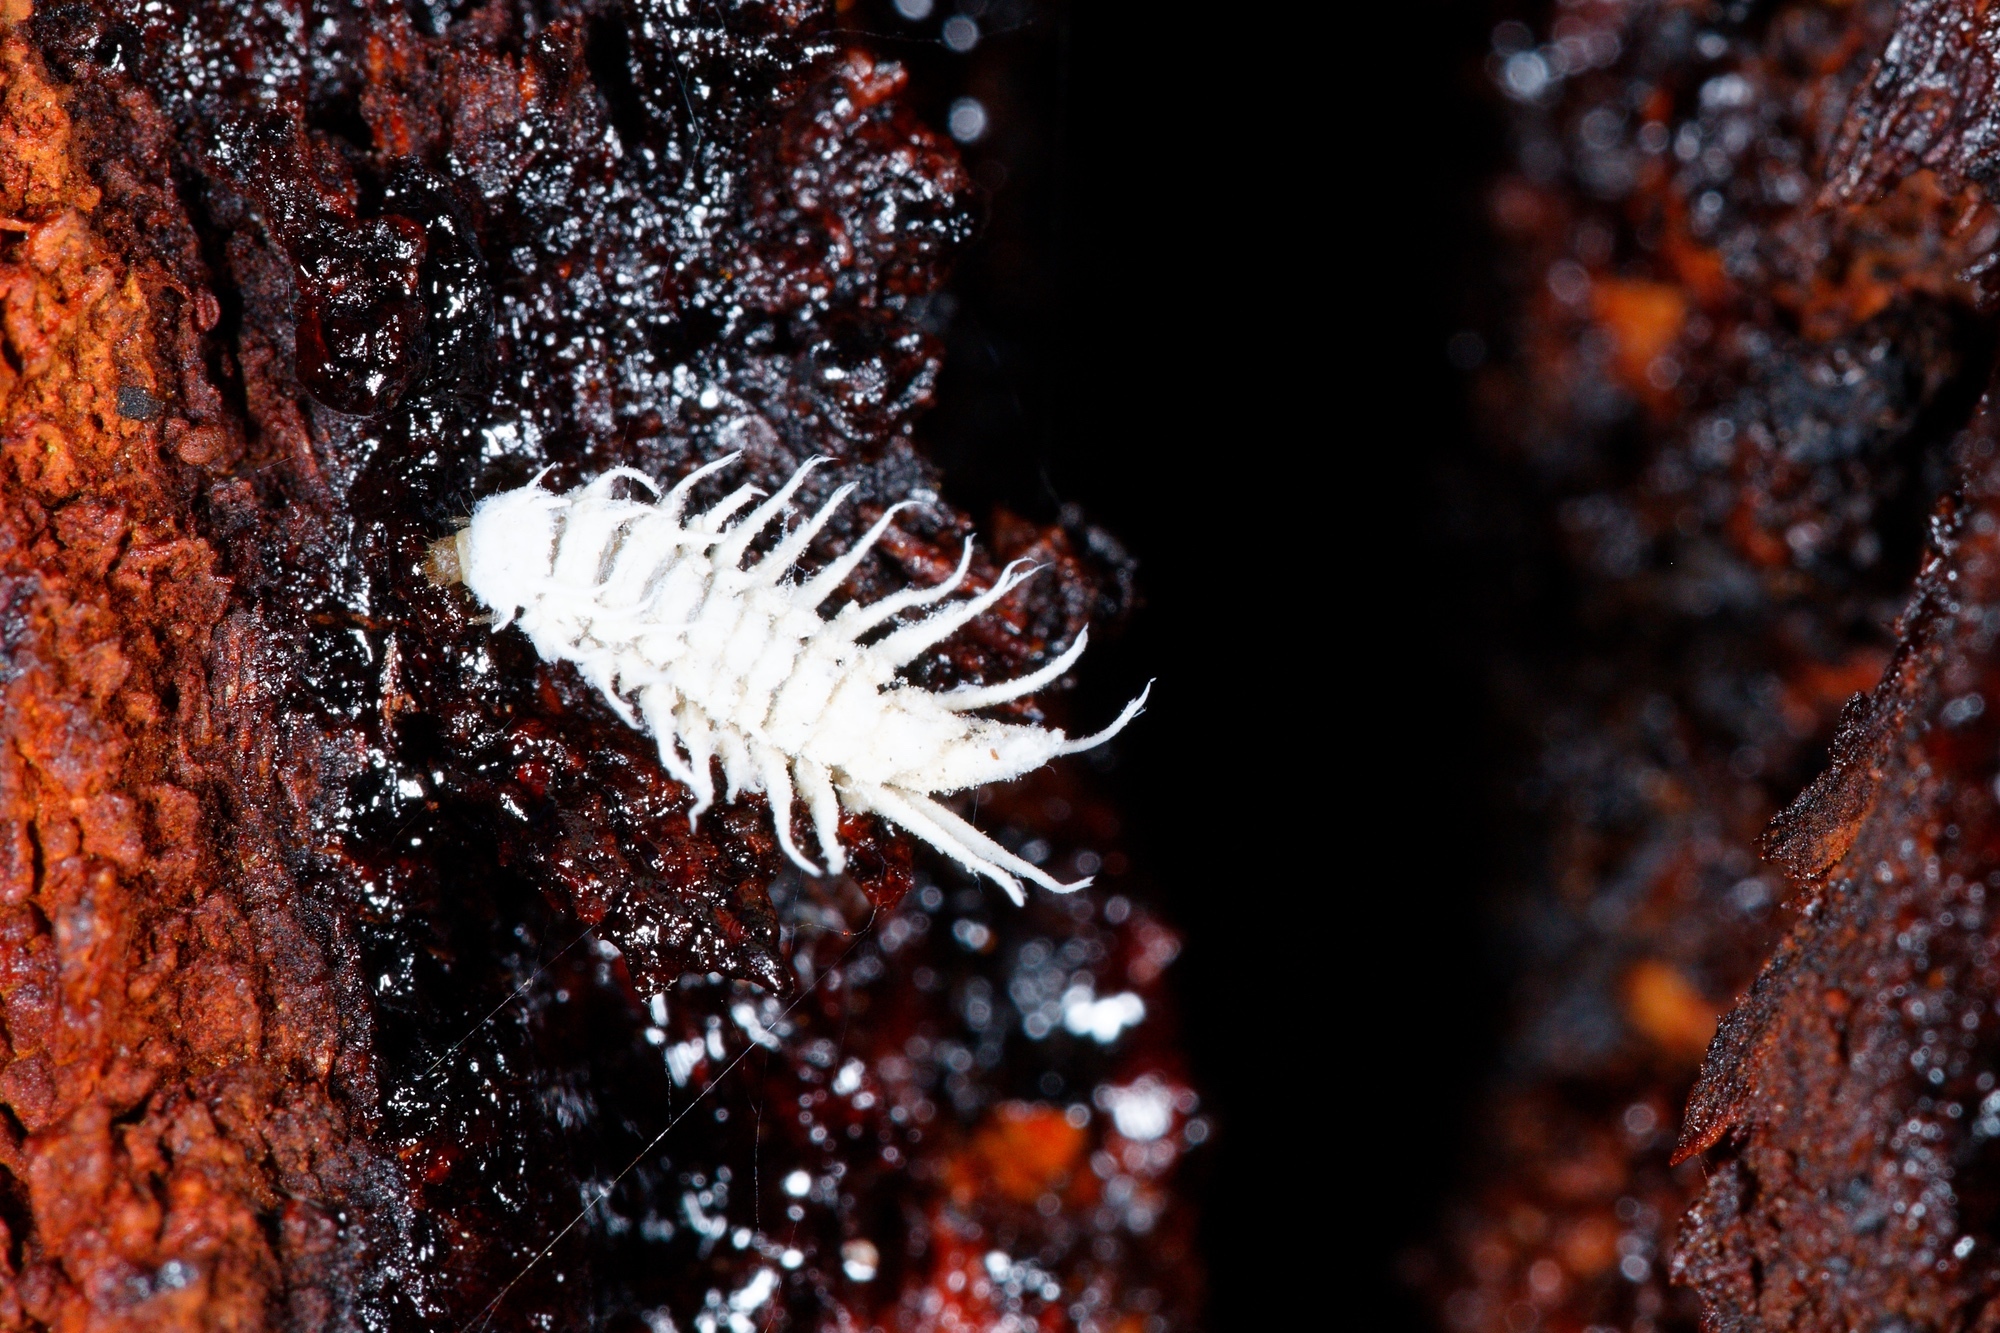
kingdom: Animalia
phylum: Arthropoda
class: Insecta
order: Coleoptera
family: Coccinellidae
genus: Cryptolaemus
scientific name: Cryptolaemus montrouzieri
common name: Mealybug destroyer
